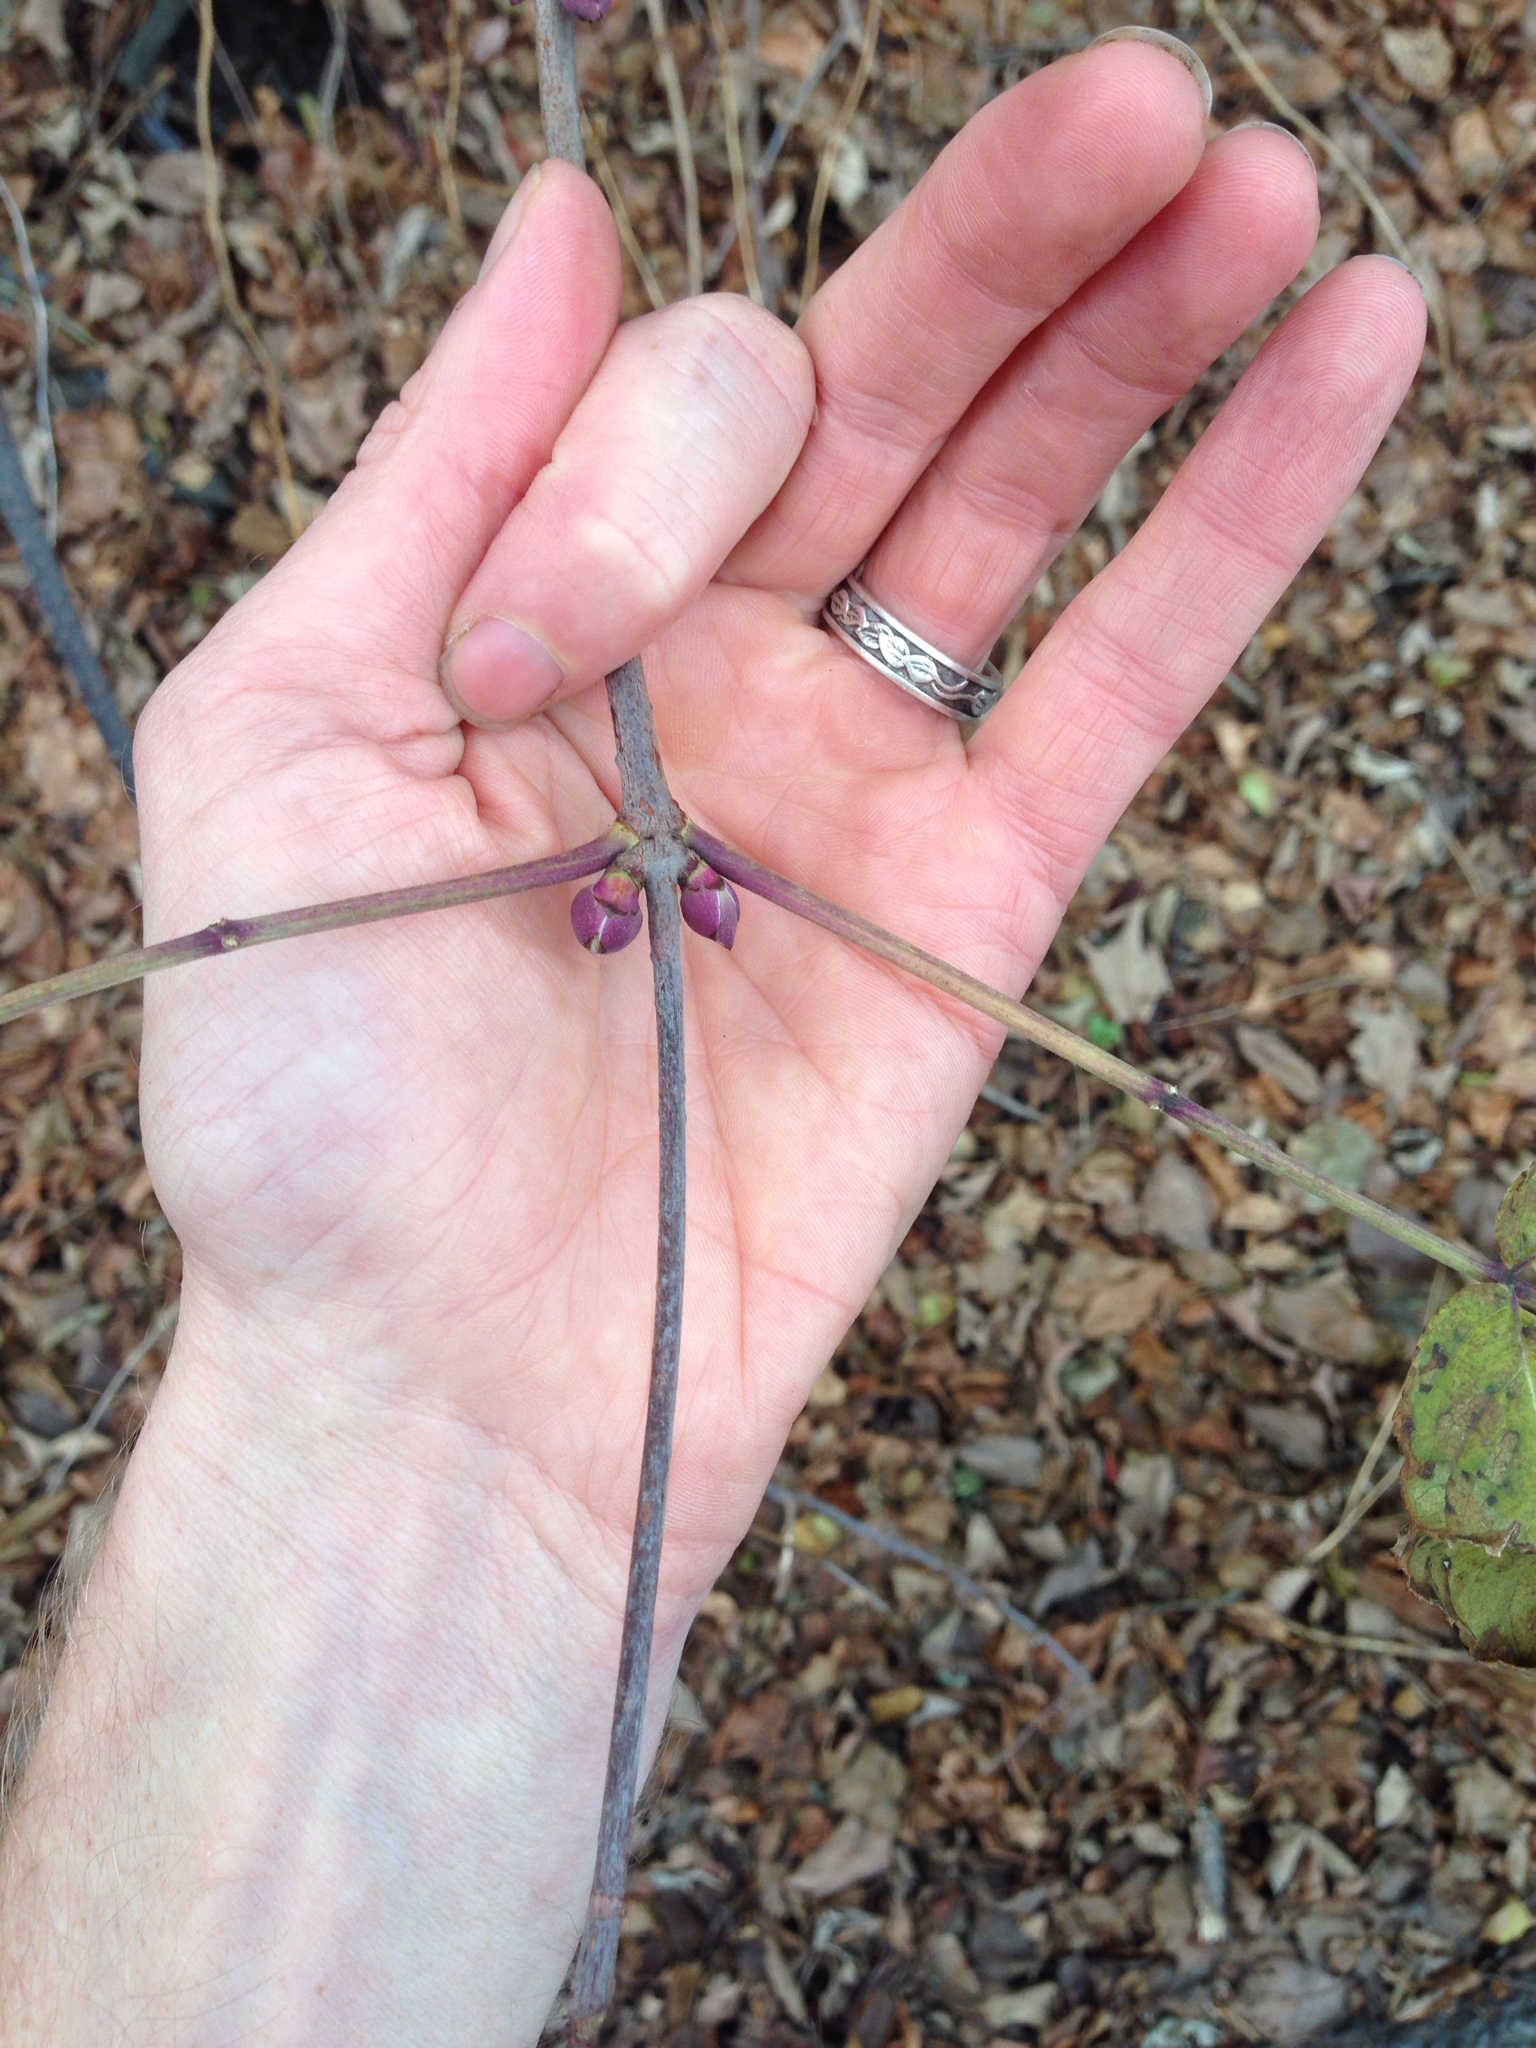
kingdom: Plantae
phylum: Tracheophyta
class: Magnoliopsida
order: Dipsacales
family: Viburnaceae
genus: Sambucus
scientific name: Sambucus racemosa
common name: Red-berried elder
